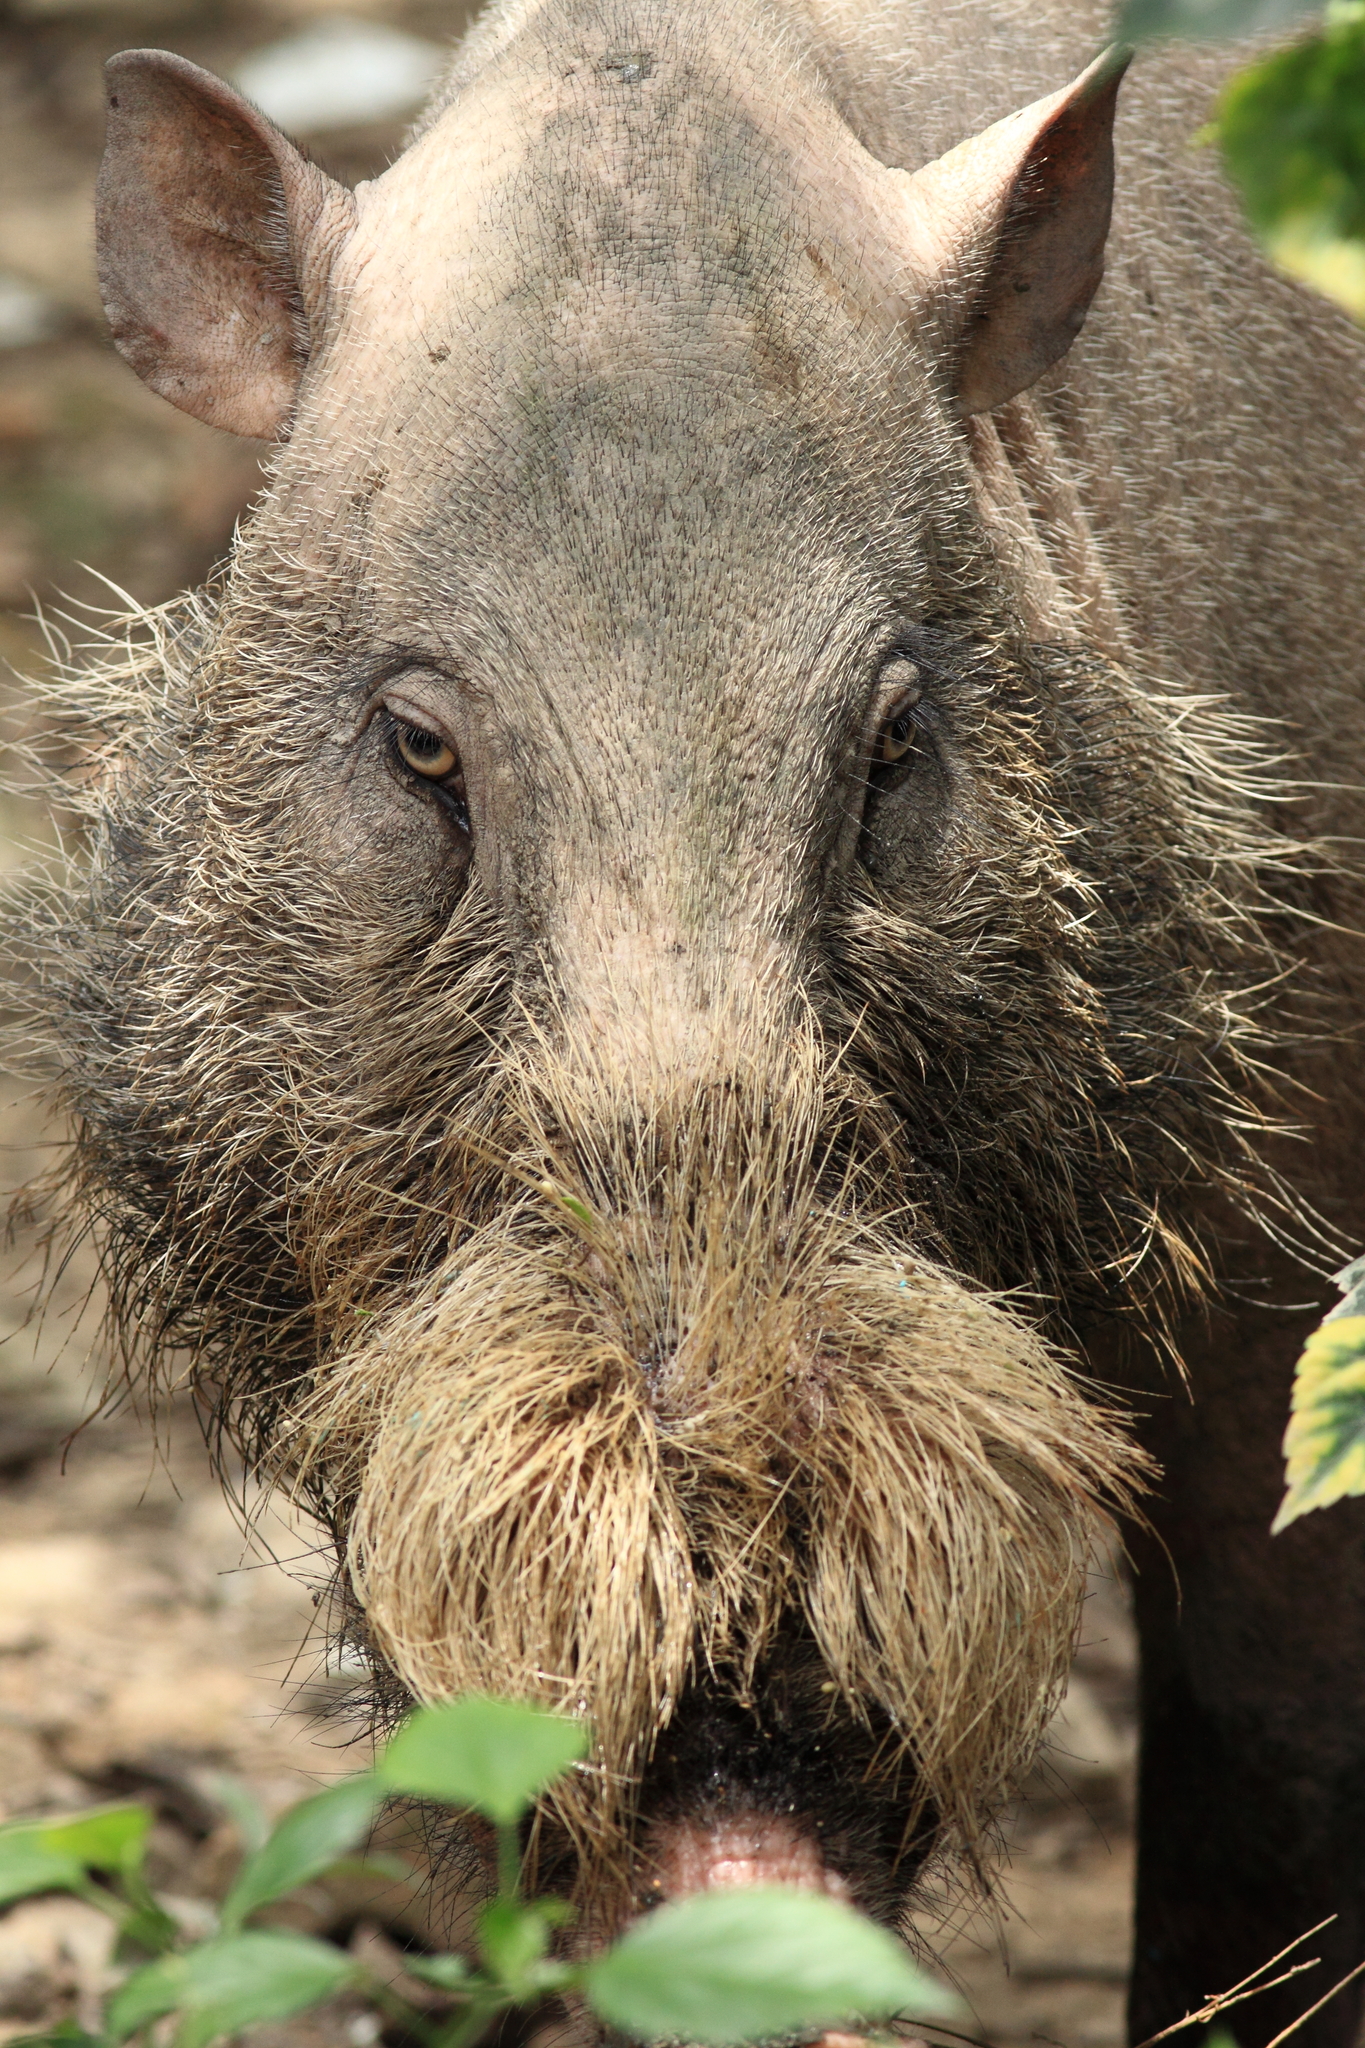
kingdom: Animalia
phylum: Chordata
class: Mammalia
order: Artiodactyla
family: Suidae
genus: Sus
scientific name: Sus barbatus
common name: Bearded pig
